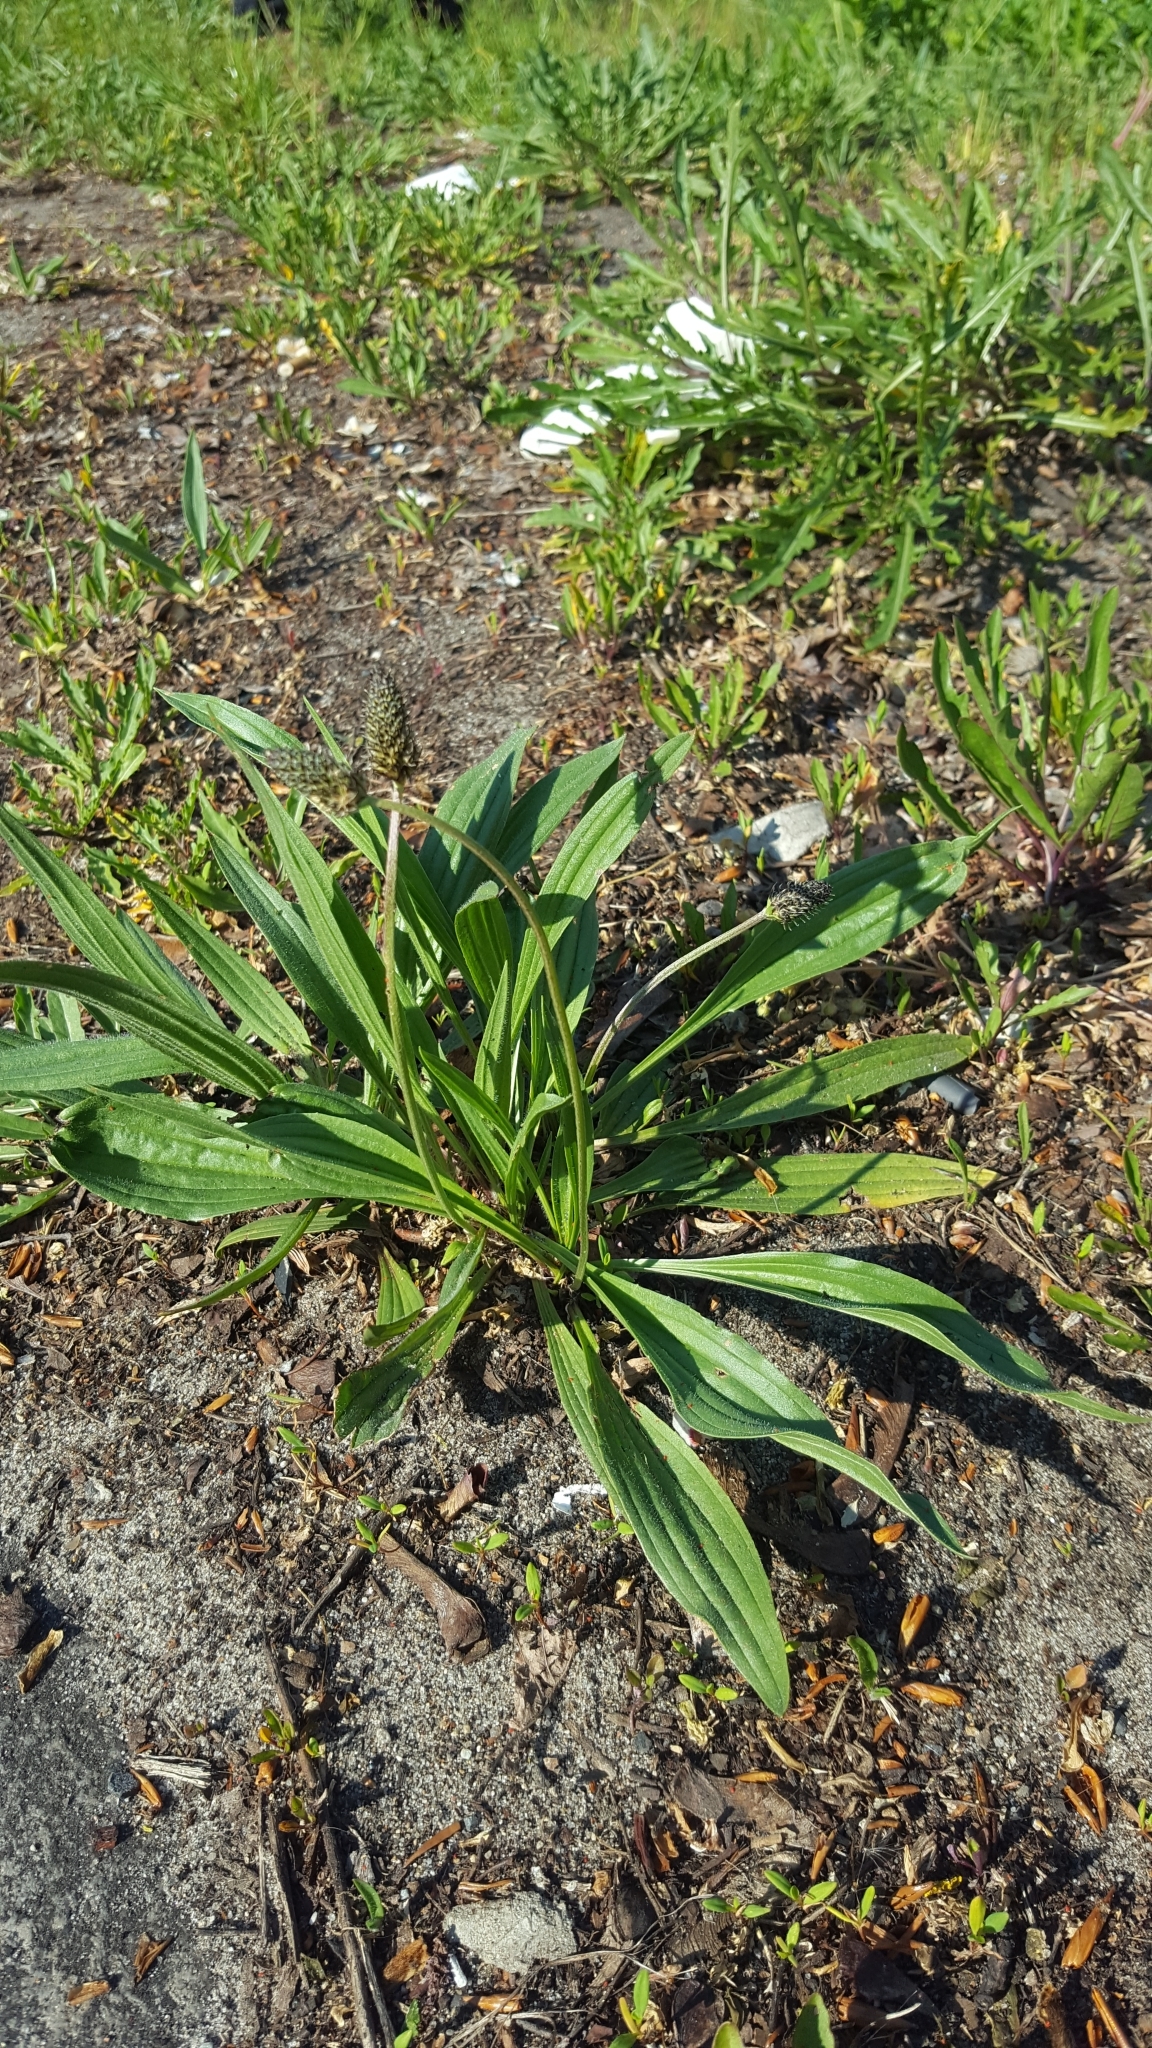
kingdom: Plantae
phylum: Tracheophyta
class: Magnoliopsida
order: Lamiales
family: Plantaginaceae
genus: Plantago
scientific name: Plantago lanceolata
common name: Ribwort plantain
